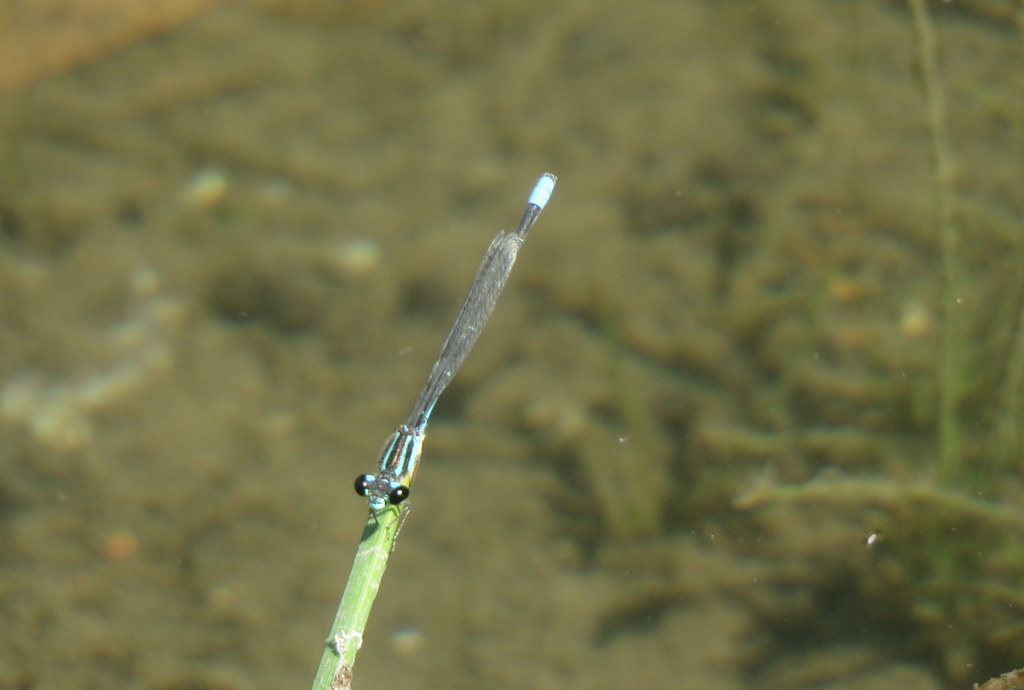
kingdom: Animalia
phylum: Arthropoda
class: Insecta
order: Odonata
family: Coenagrionidae
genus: Acanthagrion
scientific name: Acanthagrion lancea
